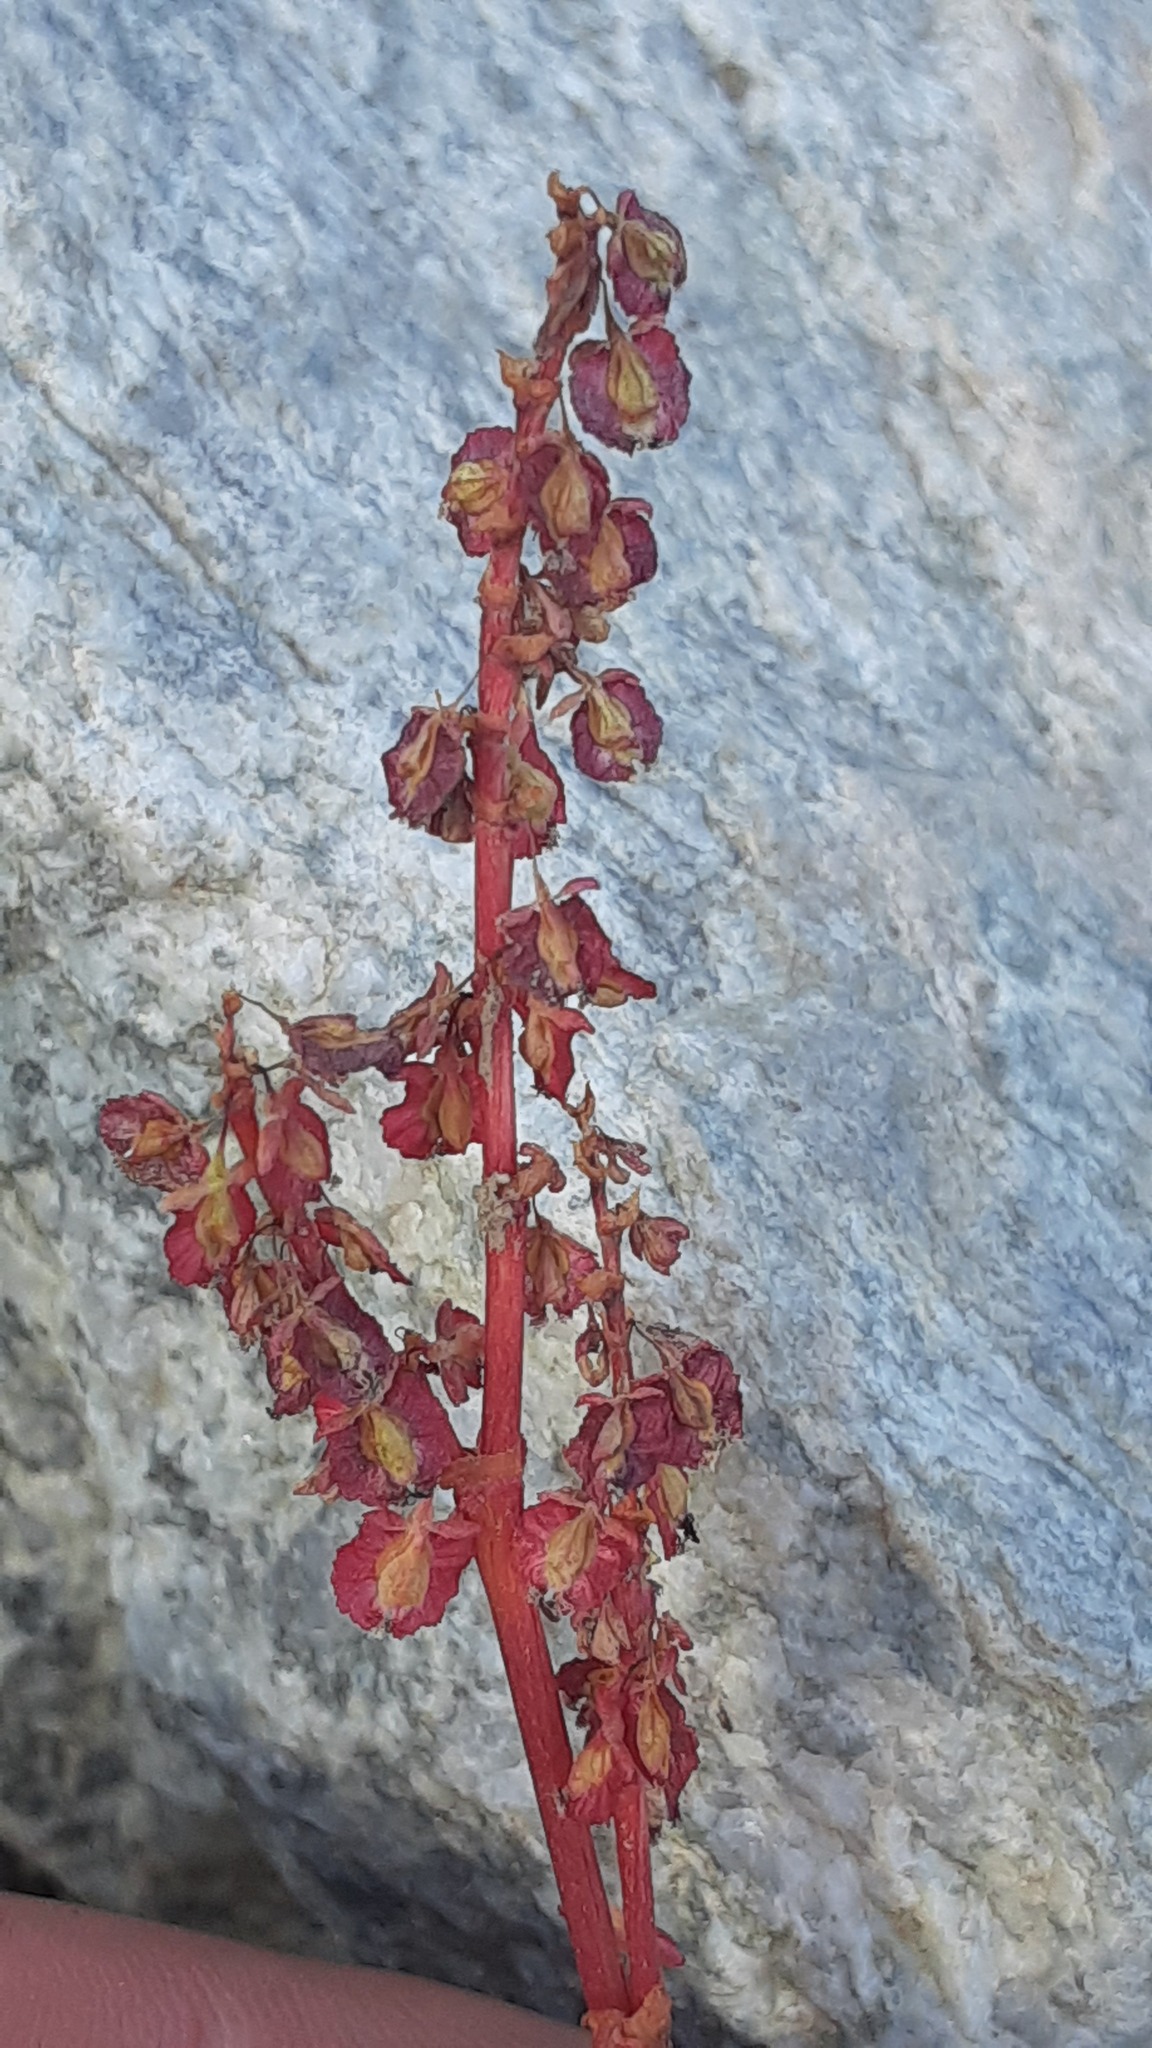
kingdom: Plantae
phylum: Tracheophyta
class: Magnoliopsida
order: Caryophyllales
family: Polygonaceae
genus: Oxyria
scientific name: Oxyria digyna
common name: Alpine mountain-sorrel
